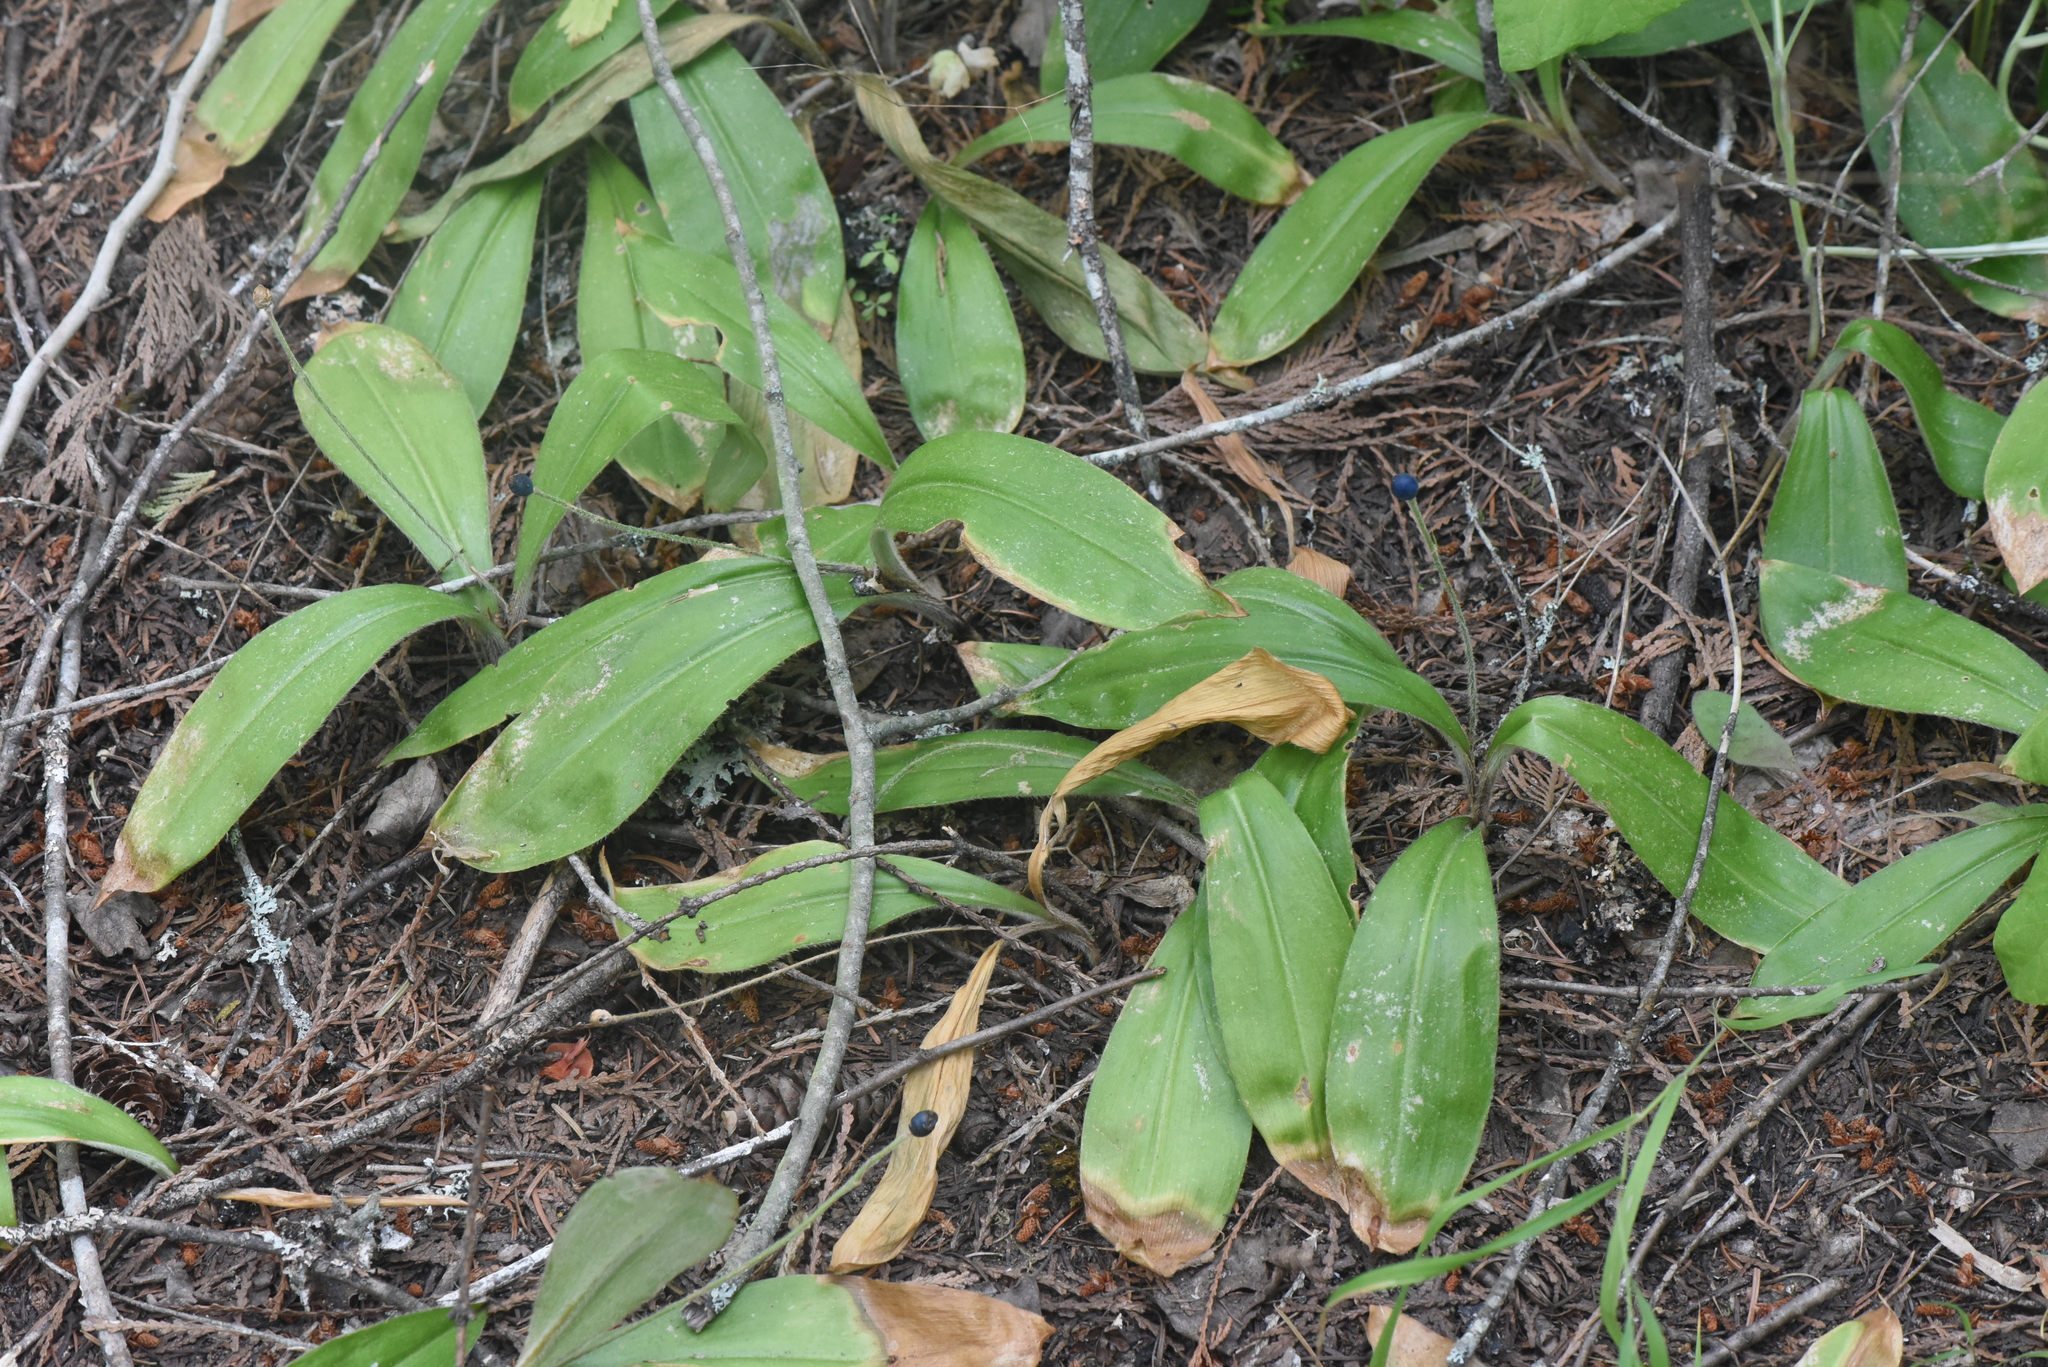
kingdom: Plantae
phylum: Tracheophyta
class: Liliopsida
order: Liliales
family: Liliaceae
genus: Clintonia
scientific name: Clintonia uniflora
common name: Queen's cup
